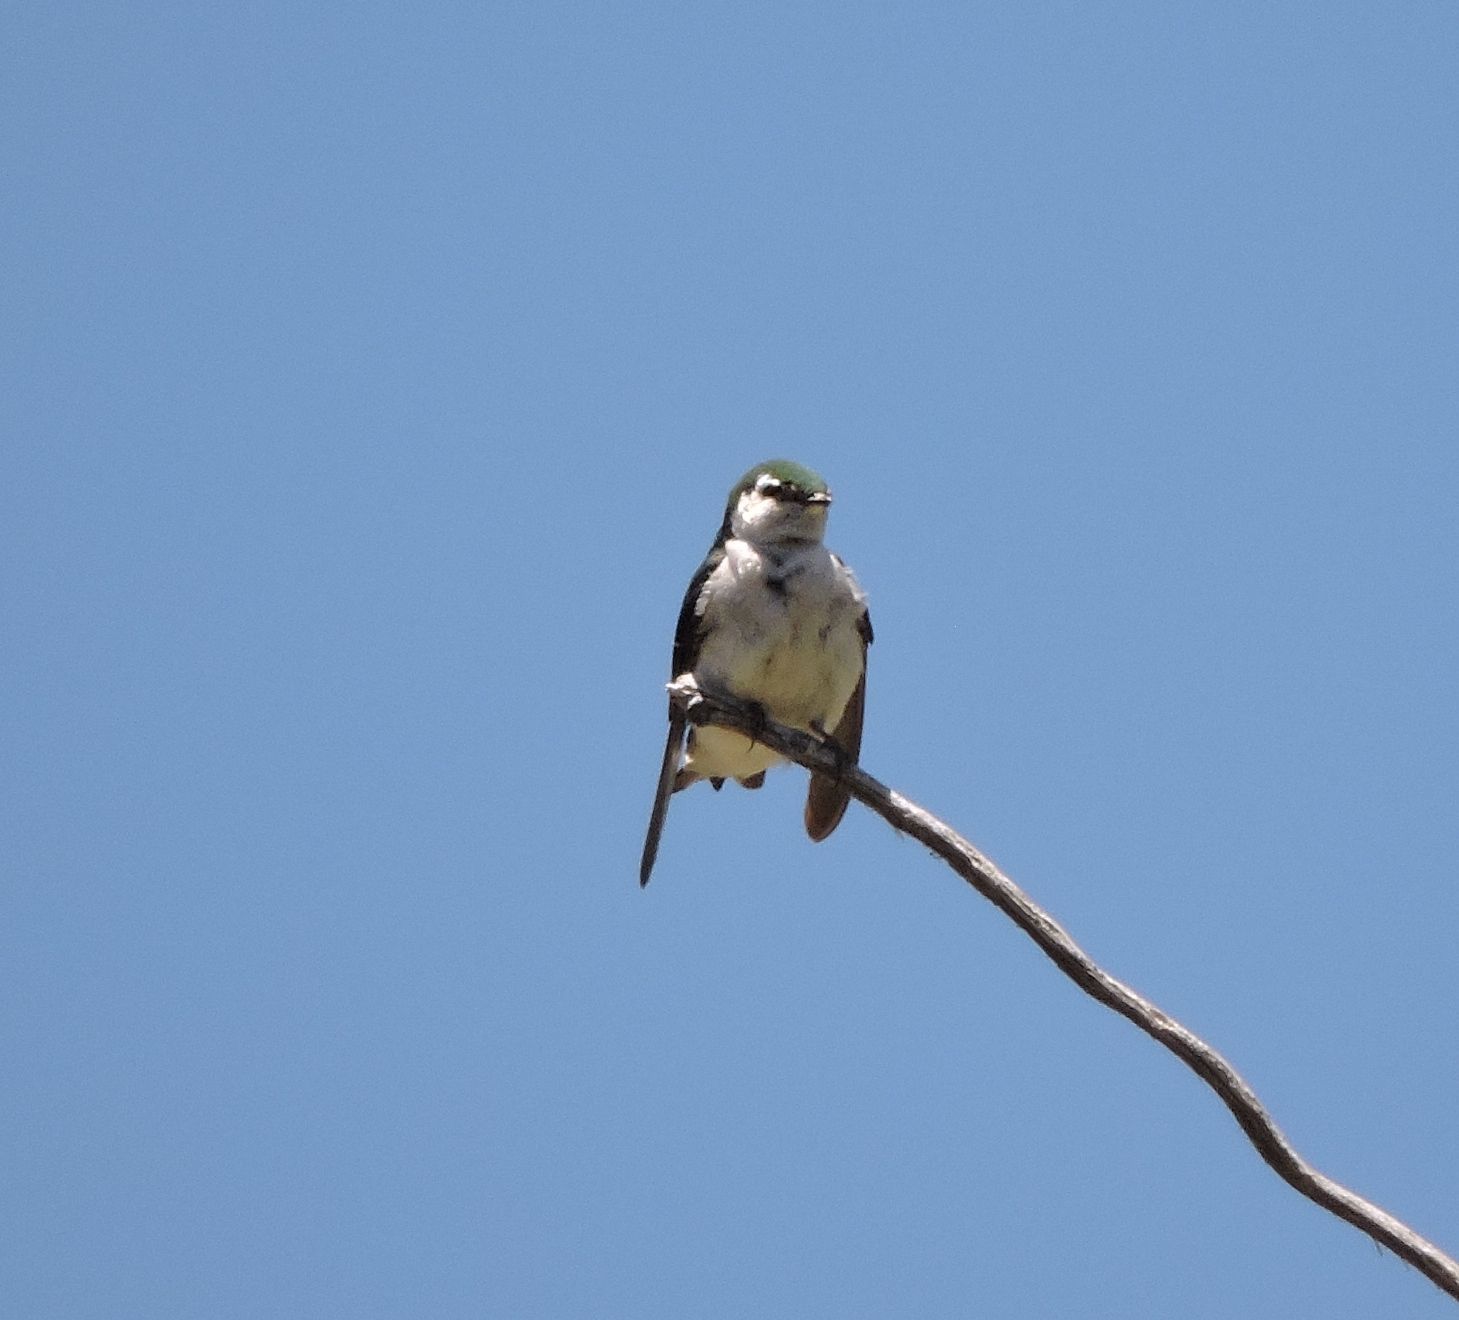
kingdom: Animalia
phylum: Chordata
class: Aves
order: Passeriformes
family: Hirundinidae
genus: Tachycineta
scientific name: Tachycineta thalassina
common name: Violet-green swallow
